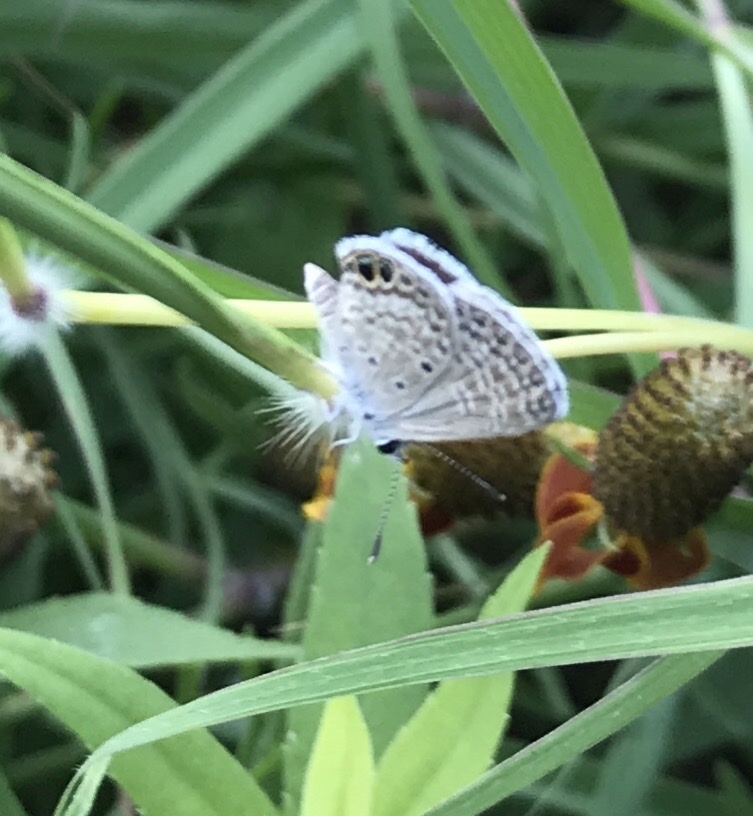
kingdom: Animalia
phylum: Arthropoda
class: Insecta
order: Lepidoptera
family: Lycaenidae
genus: Hemiargus
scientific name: Hemiargus ceraunus
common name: Ceraunus blue
